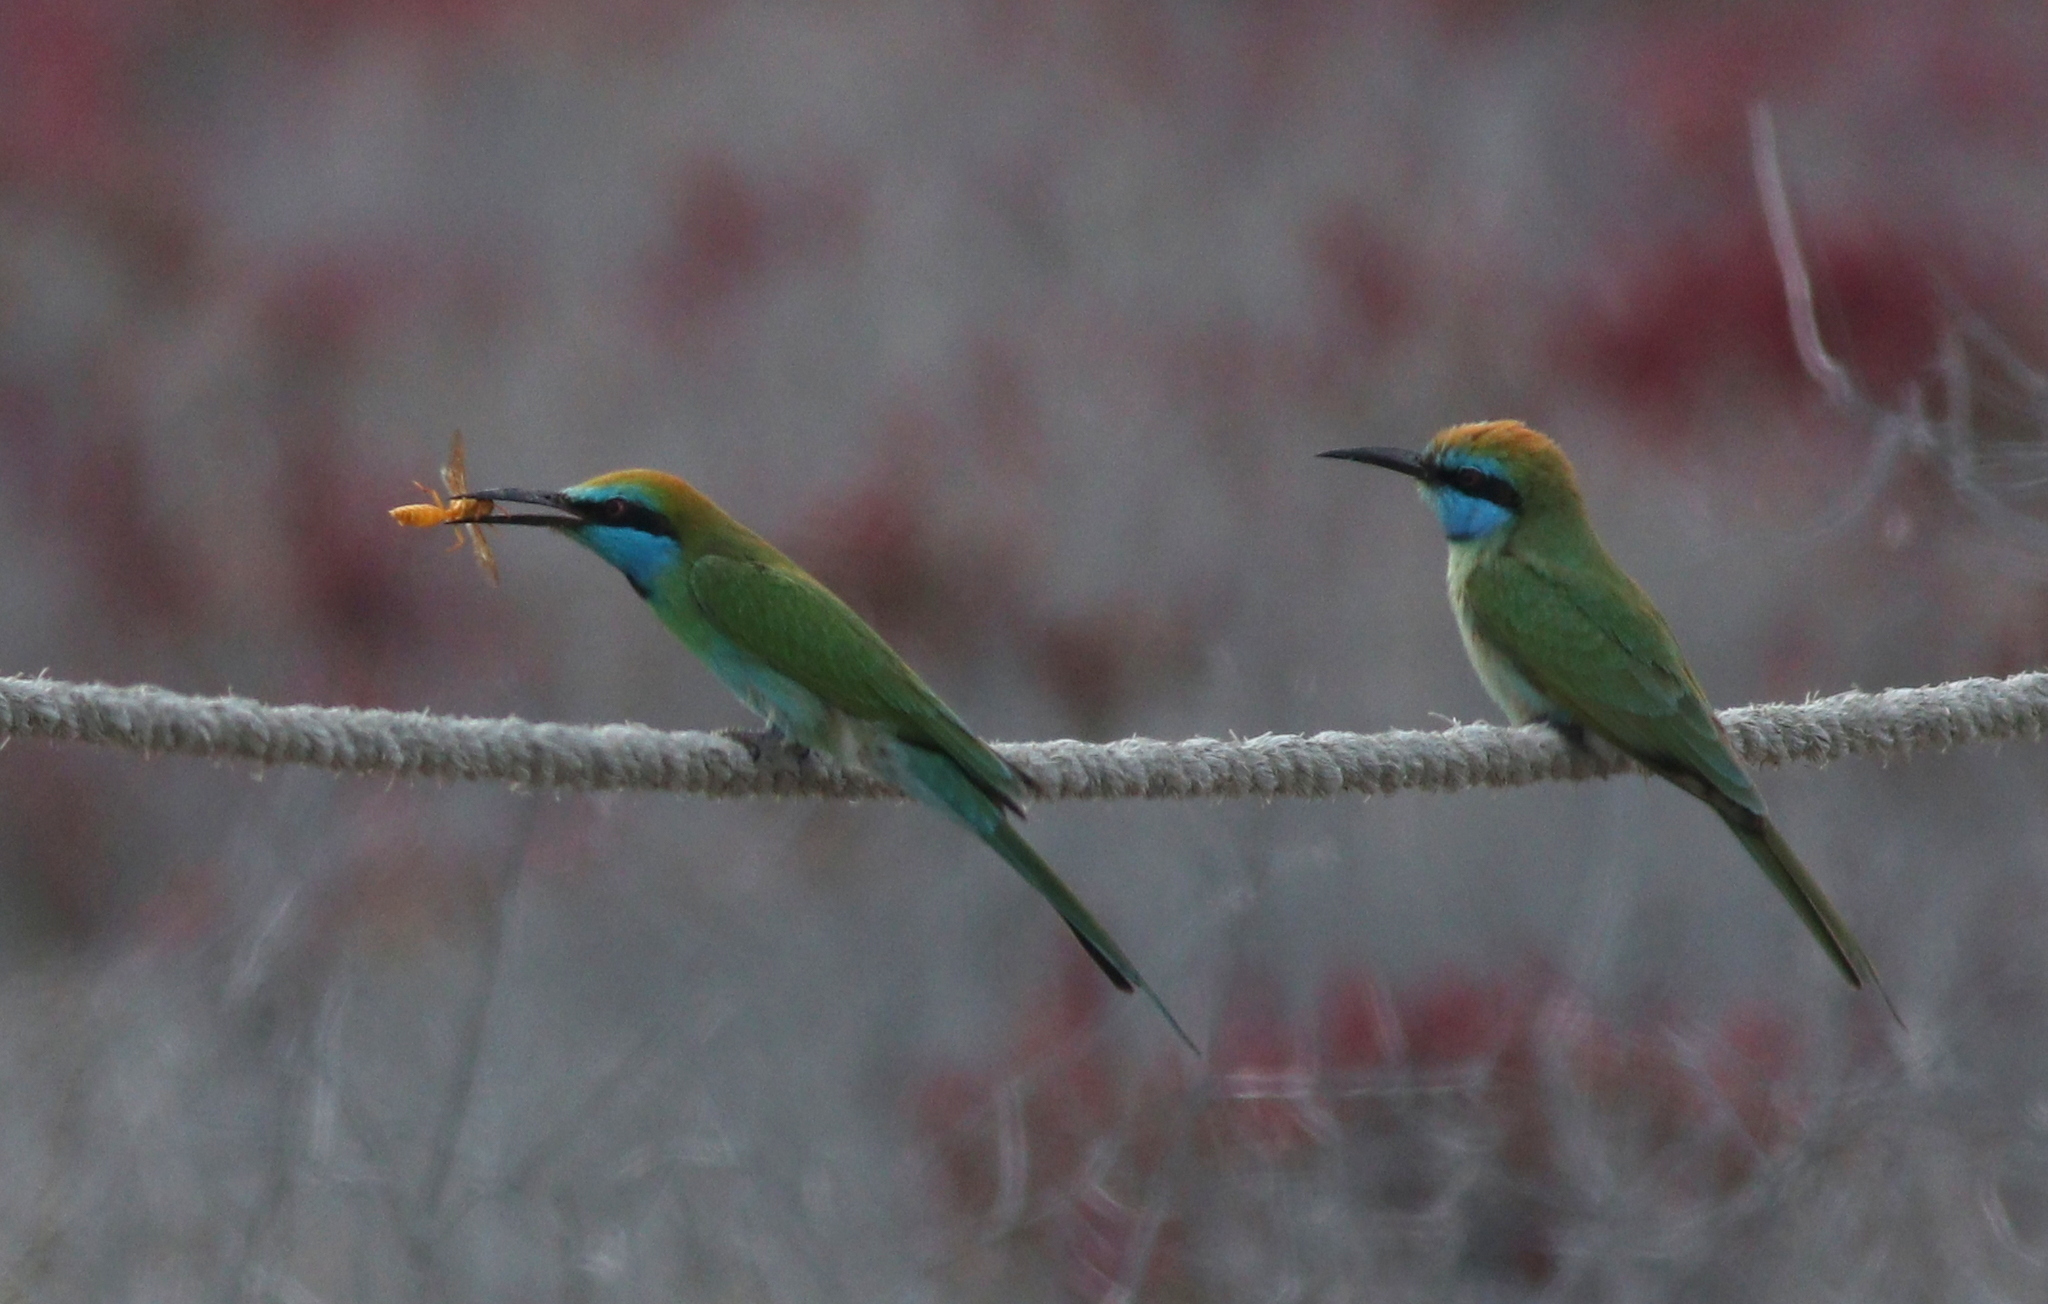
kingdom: Animalia
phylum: Chordata
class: Aves
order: Coraciiformes
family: Meropidae
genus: Merops
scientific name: Merops cyanophrys
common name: Arabian green bee-eater
